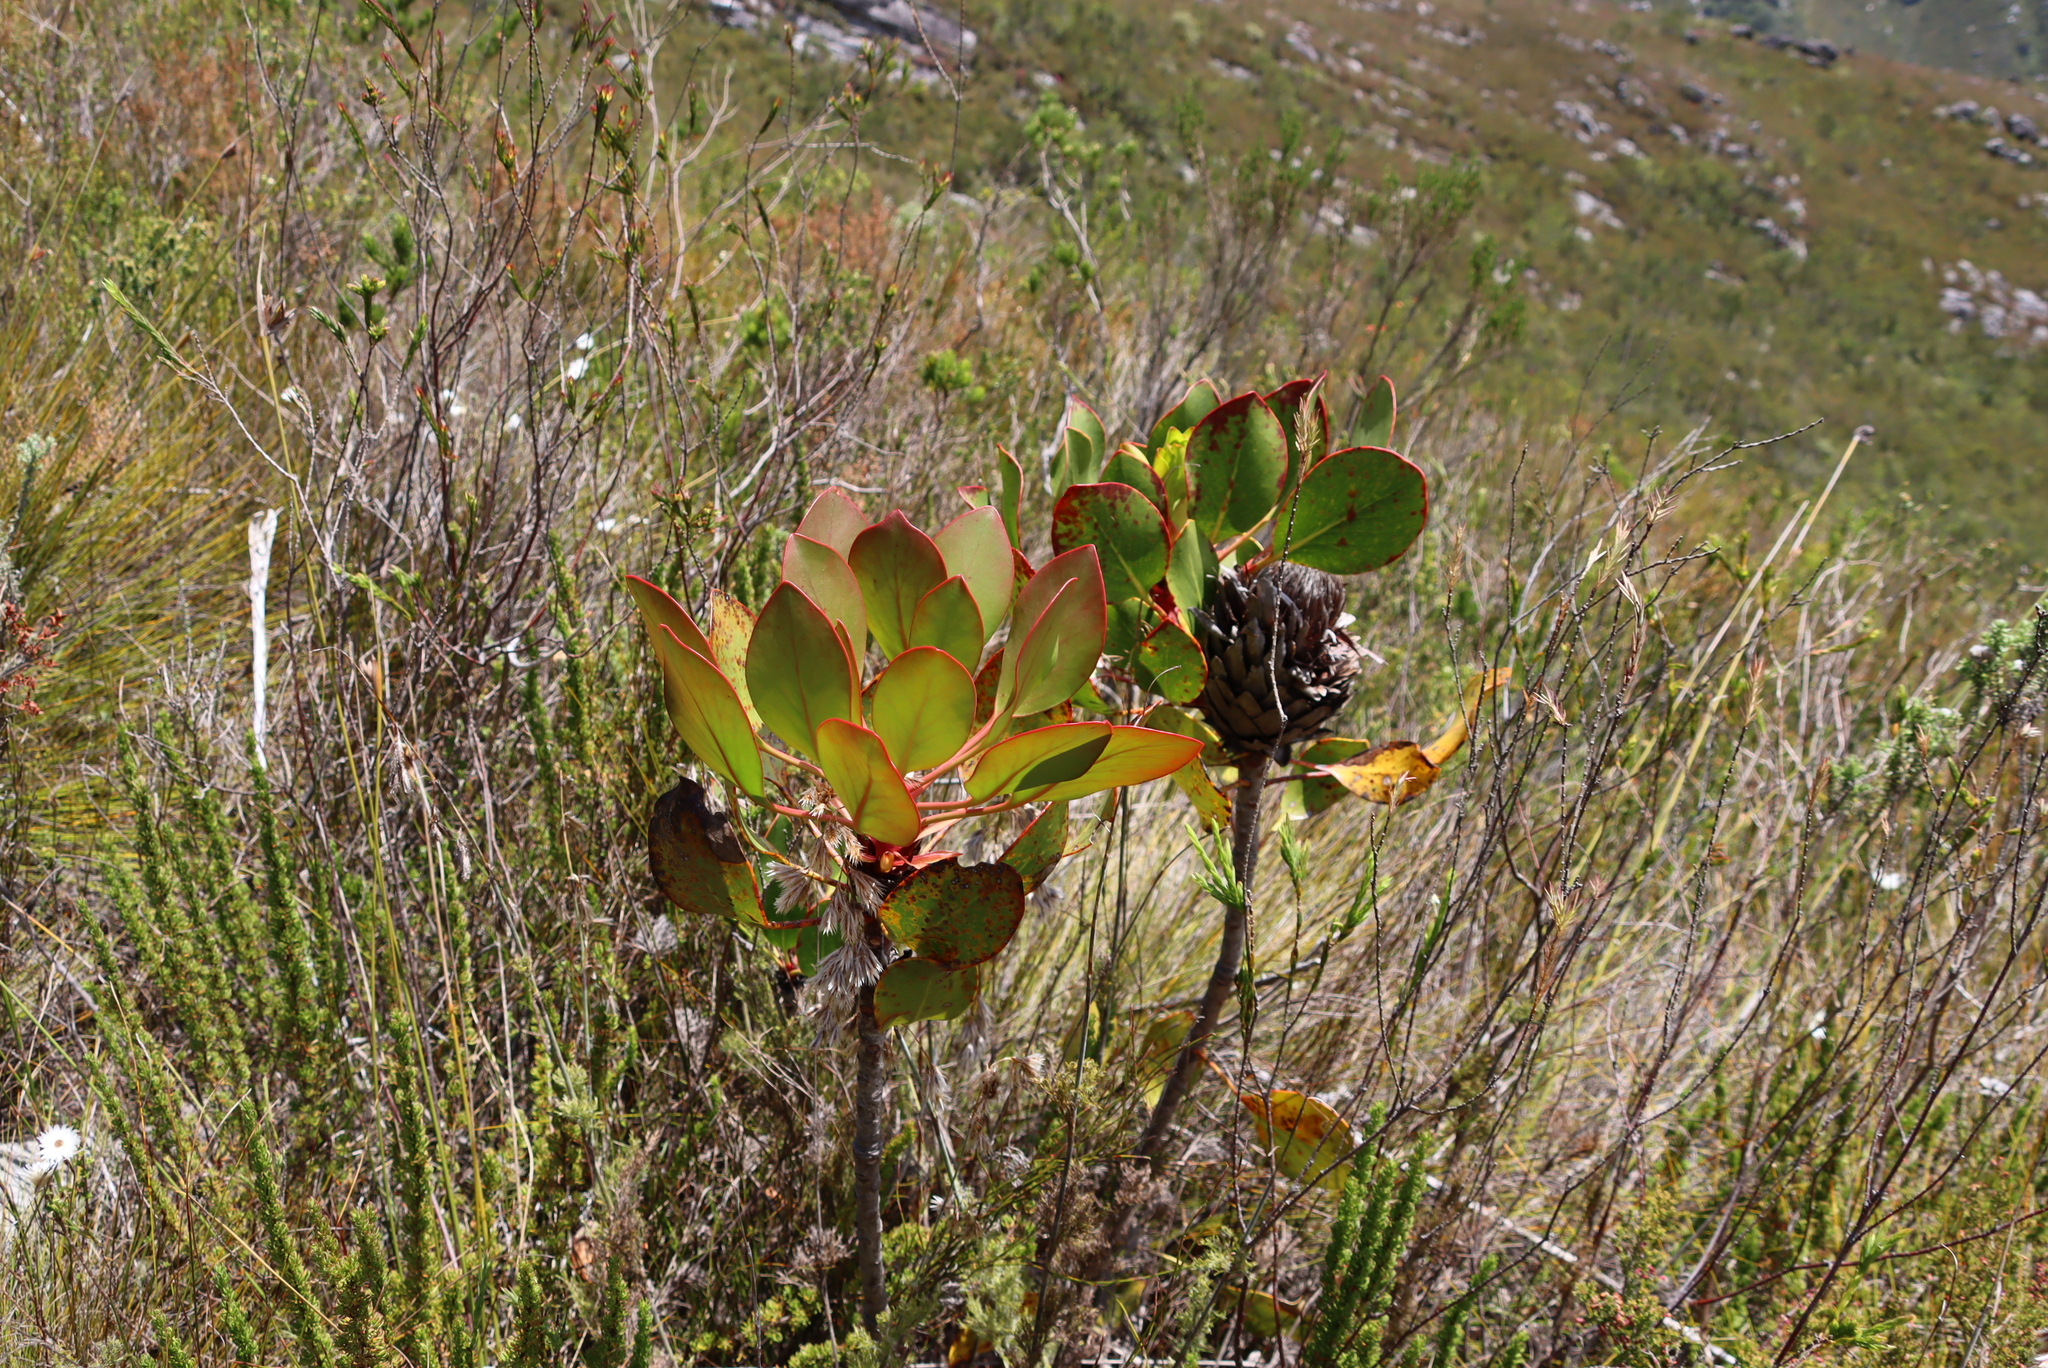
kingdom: Plantae
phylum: Tracheophyta
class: Magnoliopsida
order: Proteales
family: Proteaceae
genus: Protea
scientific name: Protea cynaroides
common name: King protea
